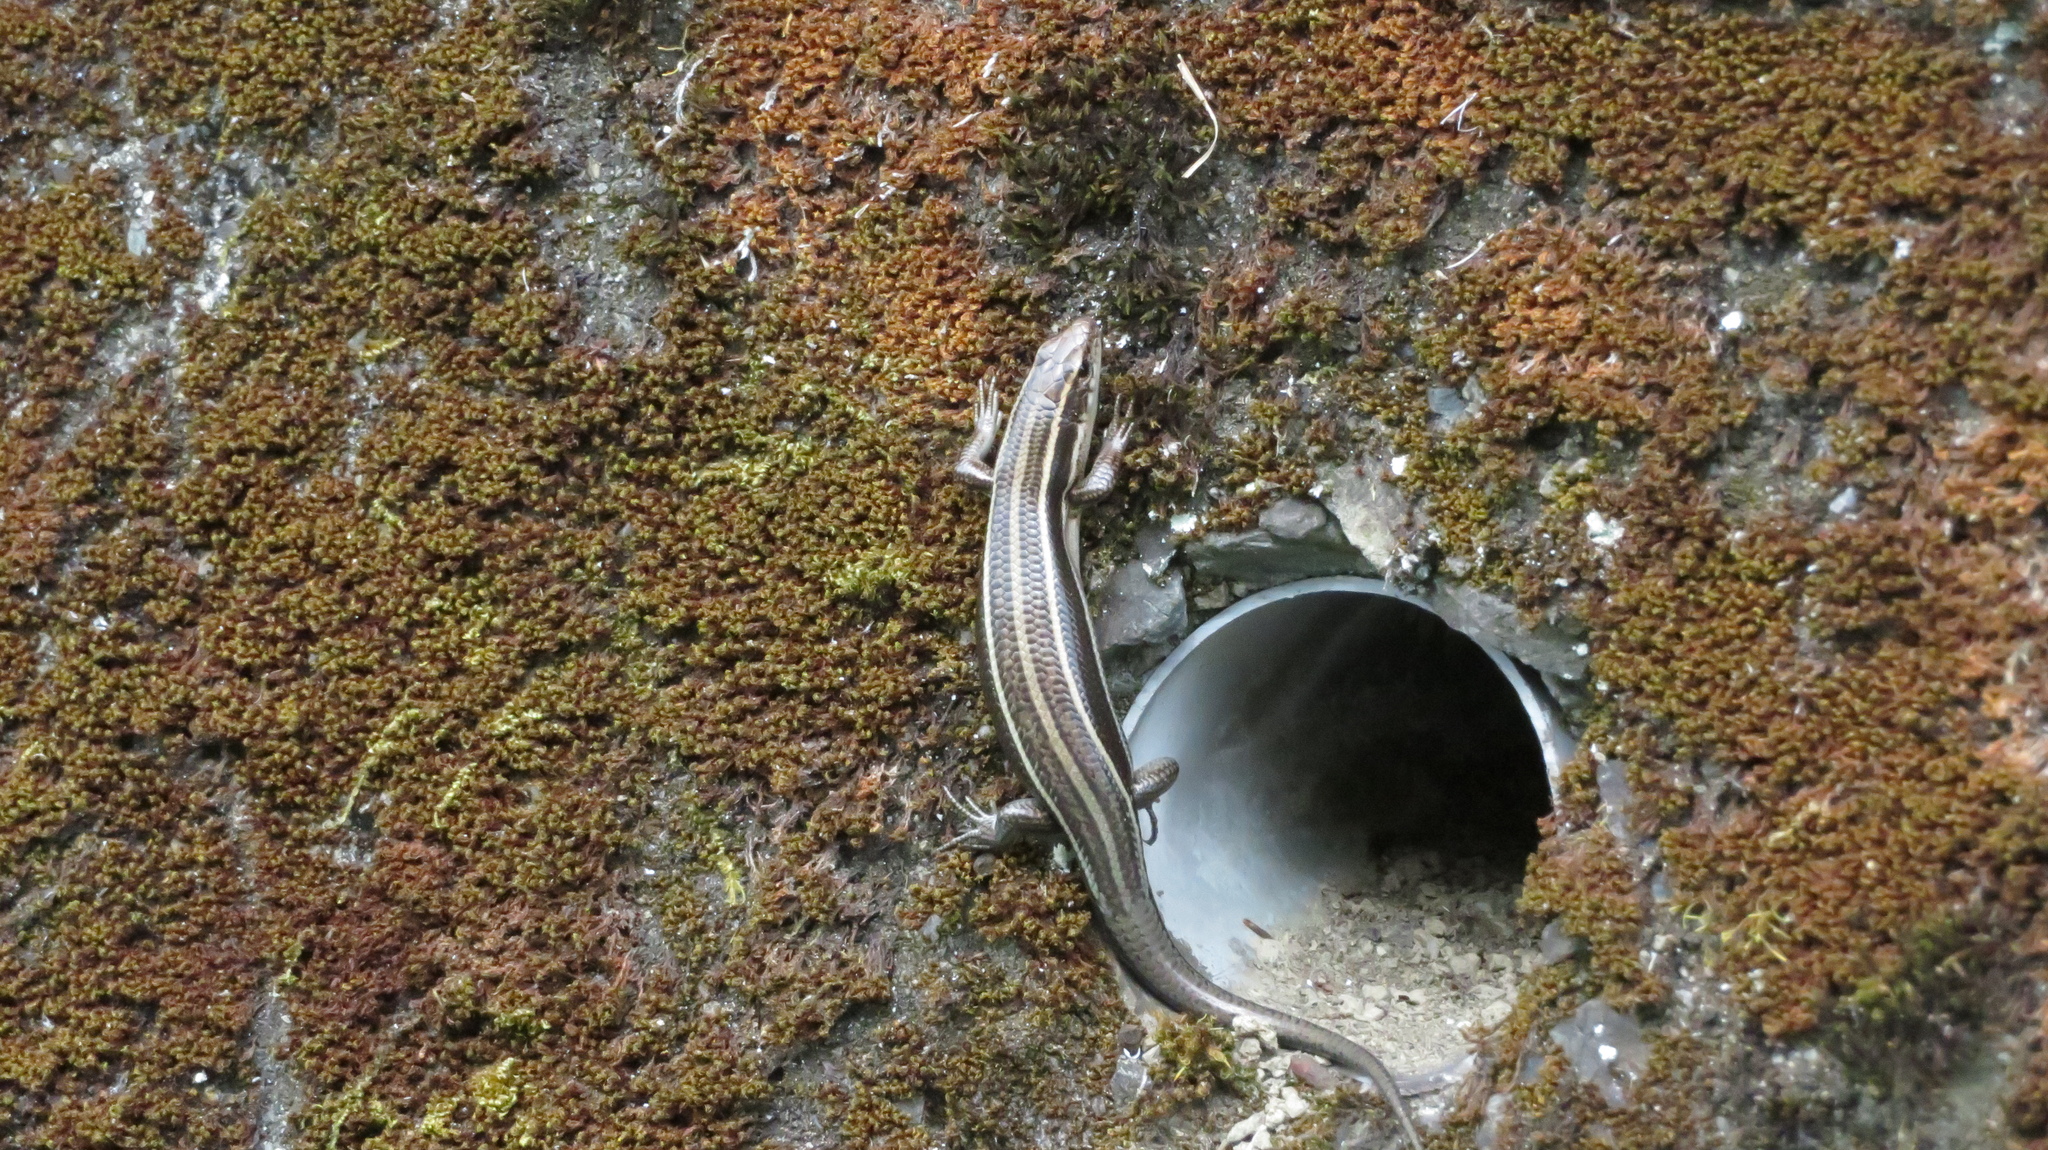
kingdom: Animalia
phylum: Chordata
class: Squamata
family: Scincidae
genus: Plestiodon
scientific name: Plestiodon japonicus
